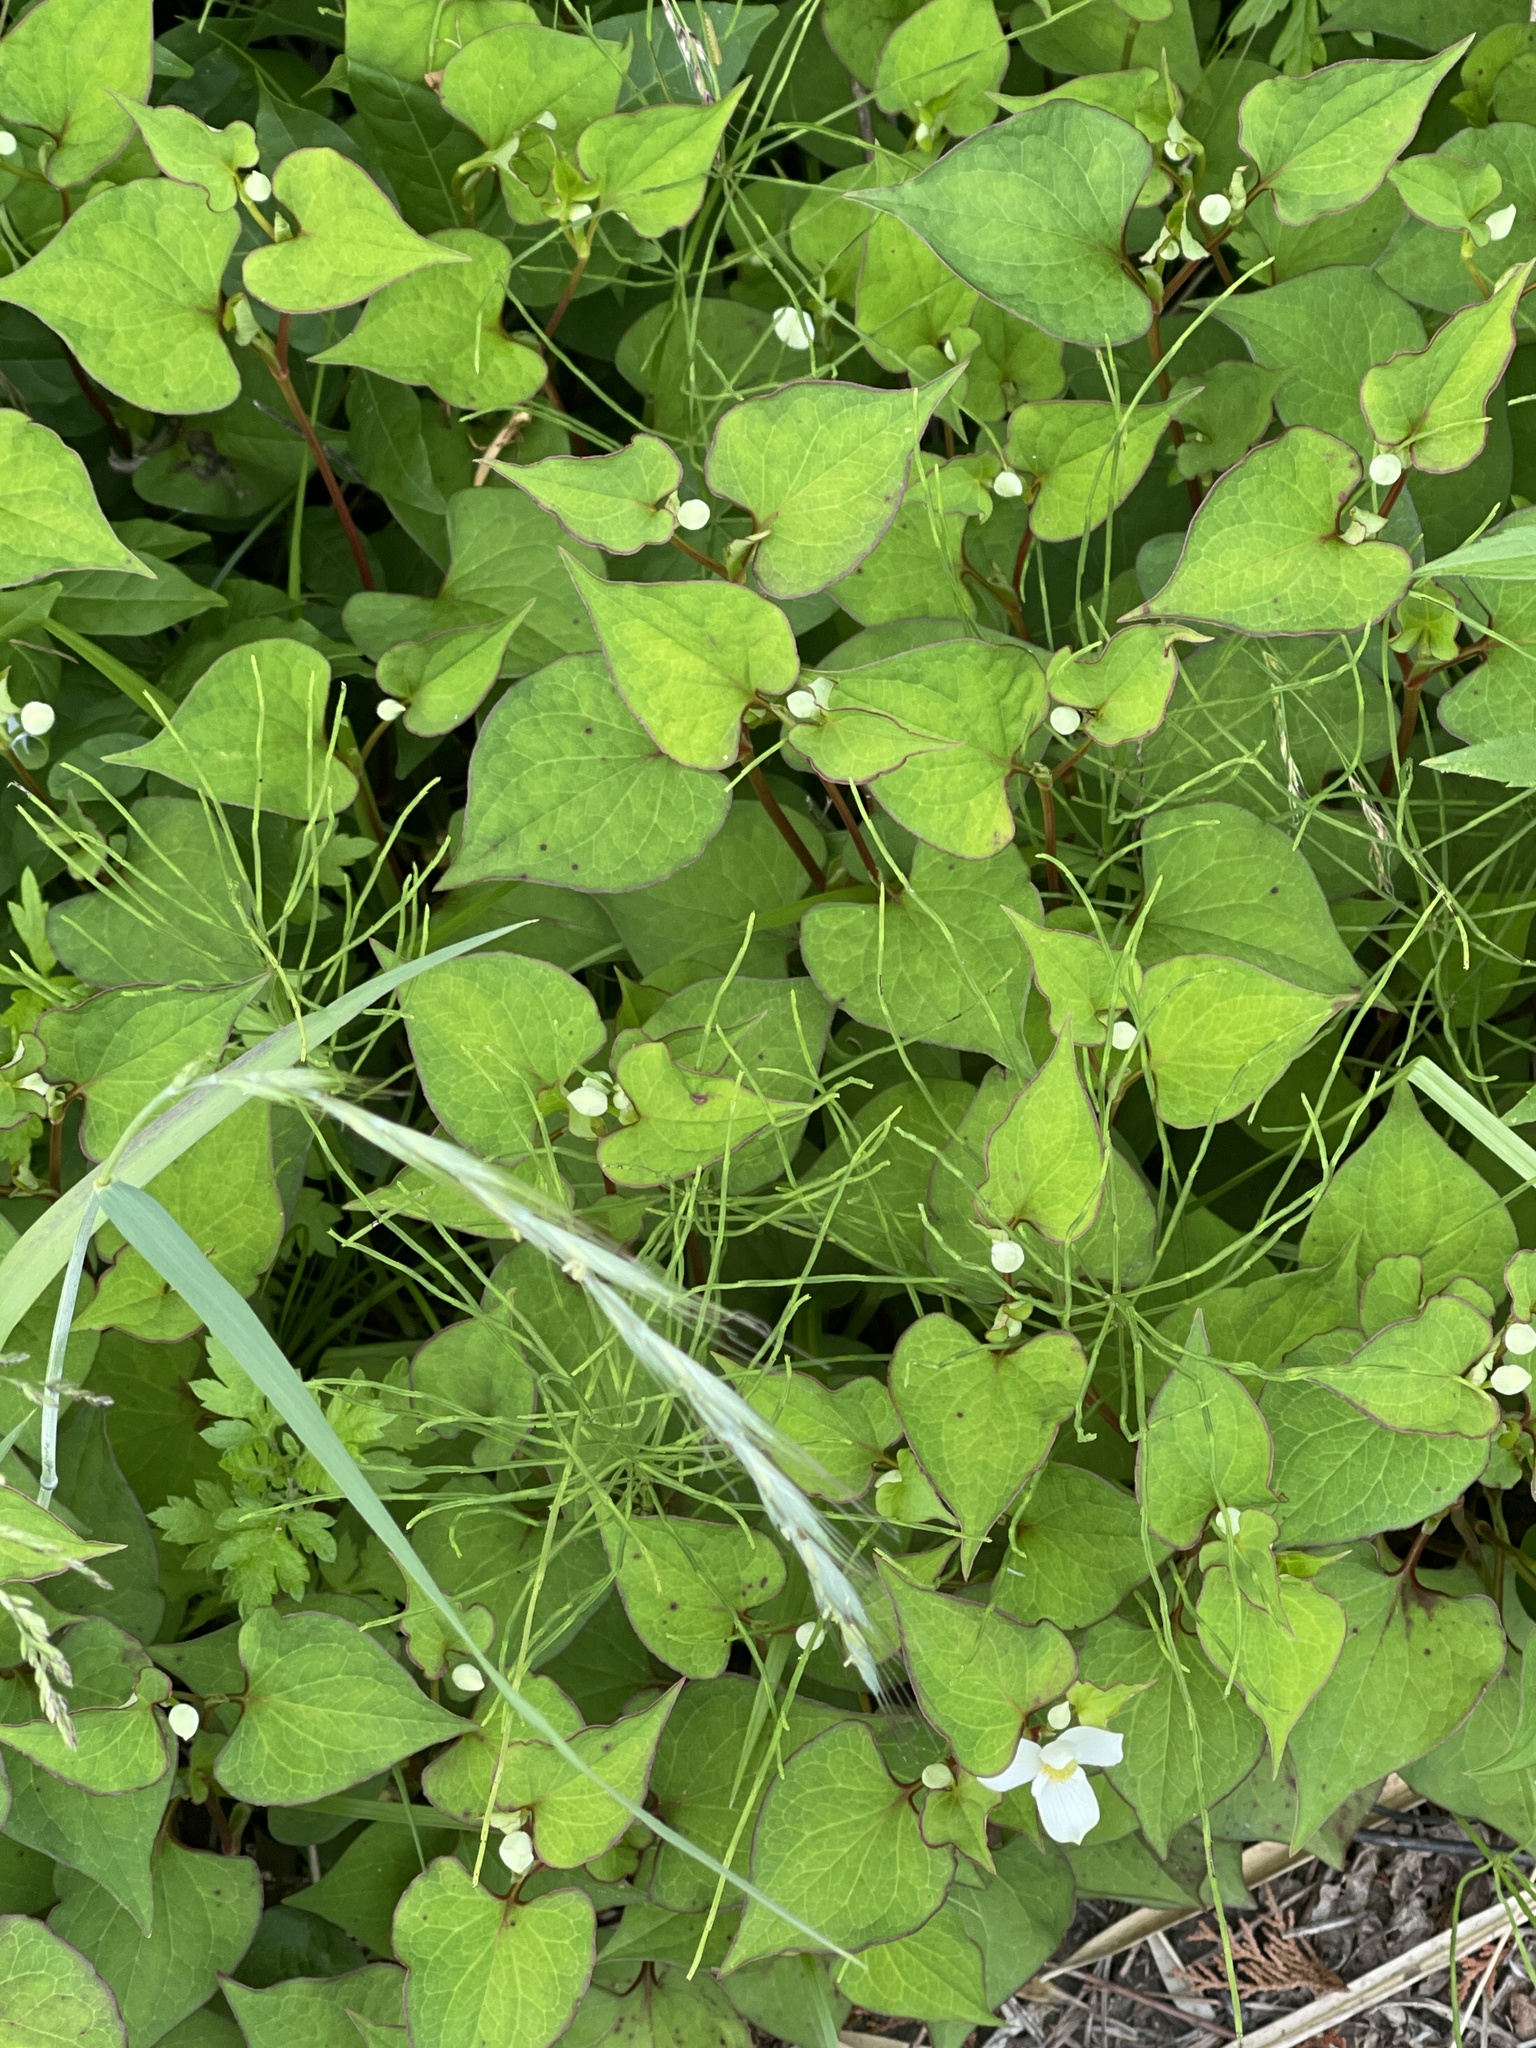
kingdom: Plantae
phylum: Tracheophyta
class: Magnoliopsida
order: Piperales
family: Saururaceae
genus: Houttuynia
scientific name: Houttuynia cordata
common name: Chameleon
